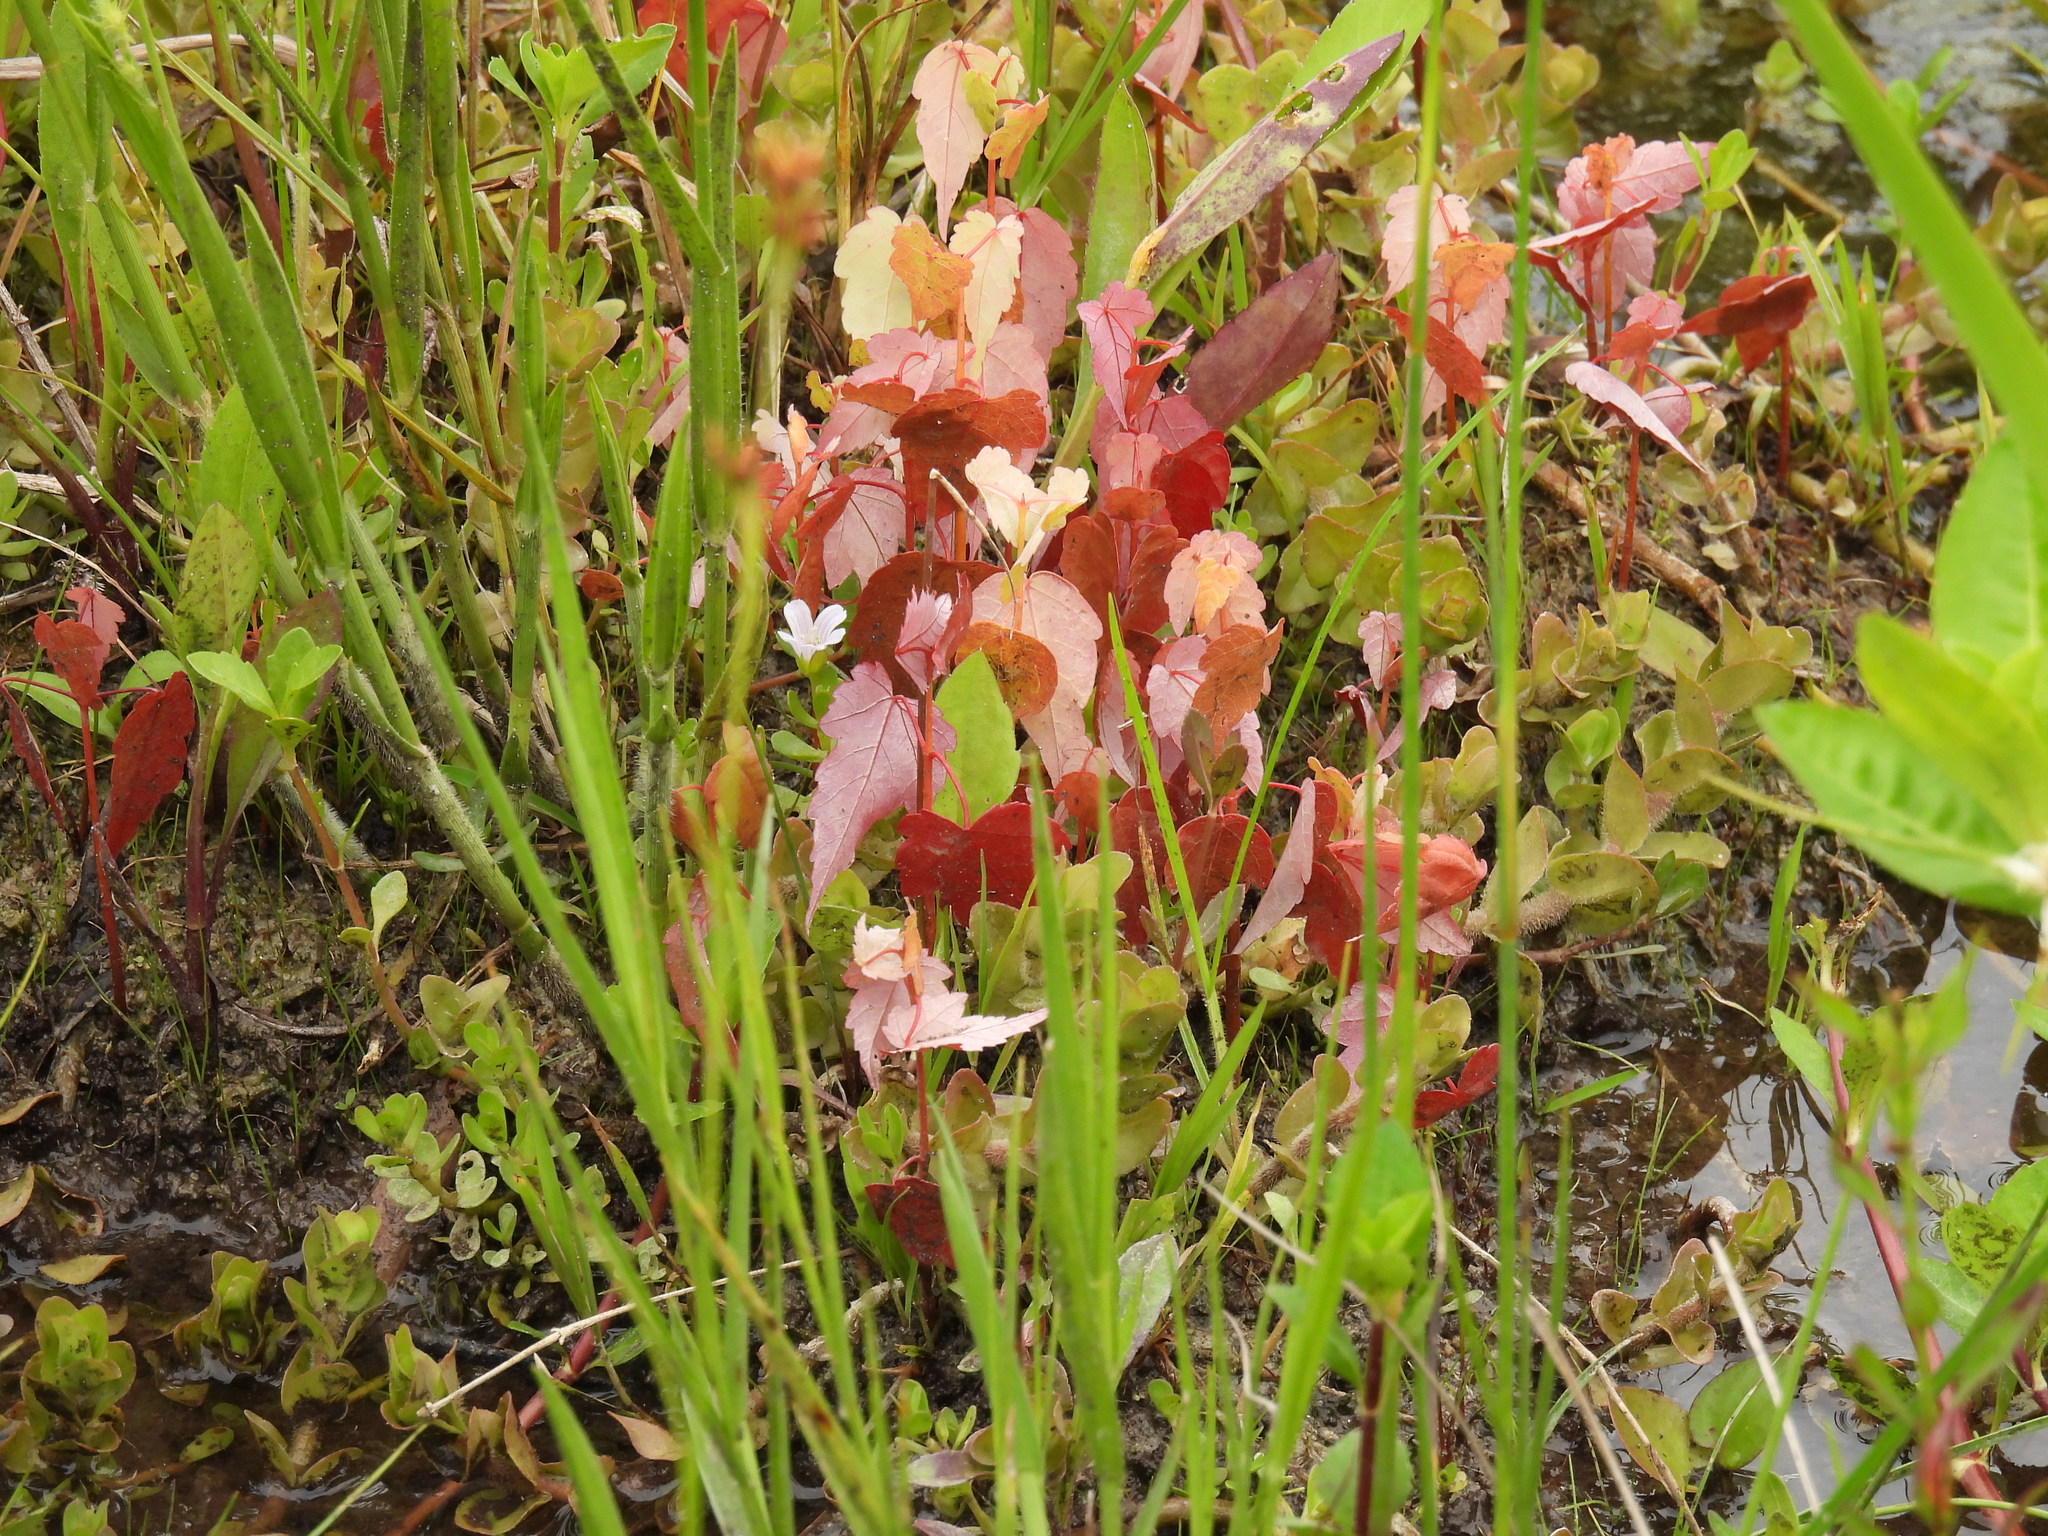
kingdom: Plantae
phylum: Tracheophyta
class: Magnoliopsida
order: Sapindales
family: Sapindaceae
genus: Acer
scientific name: Acer rubrum
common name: Red maple
